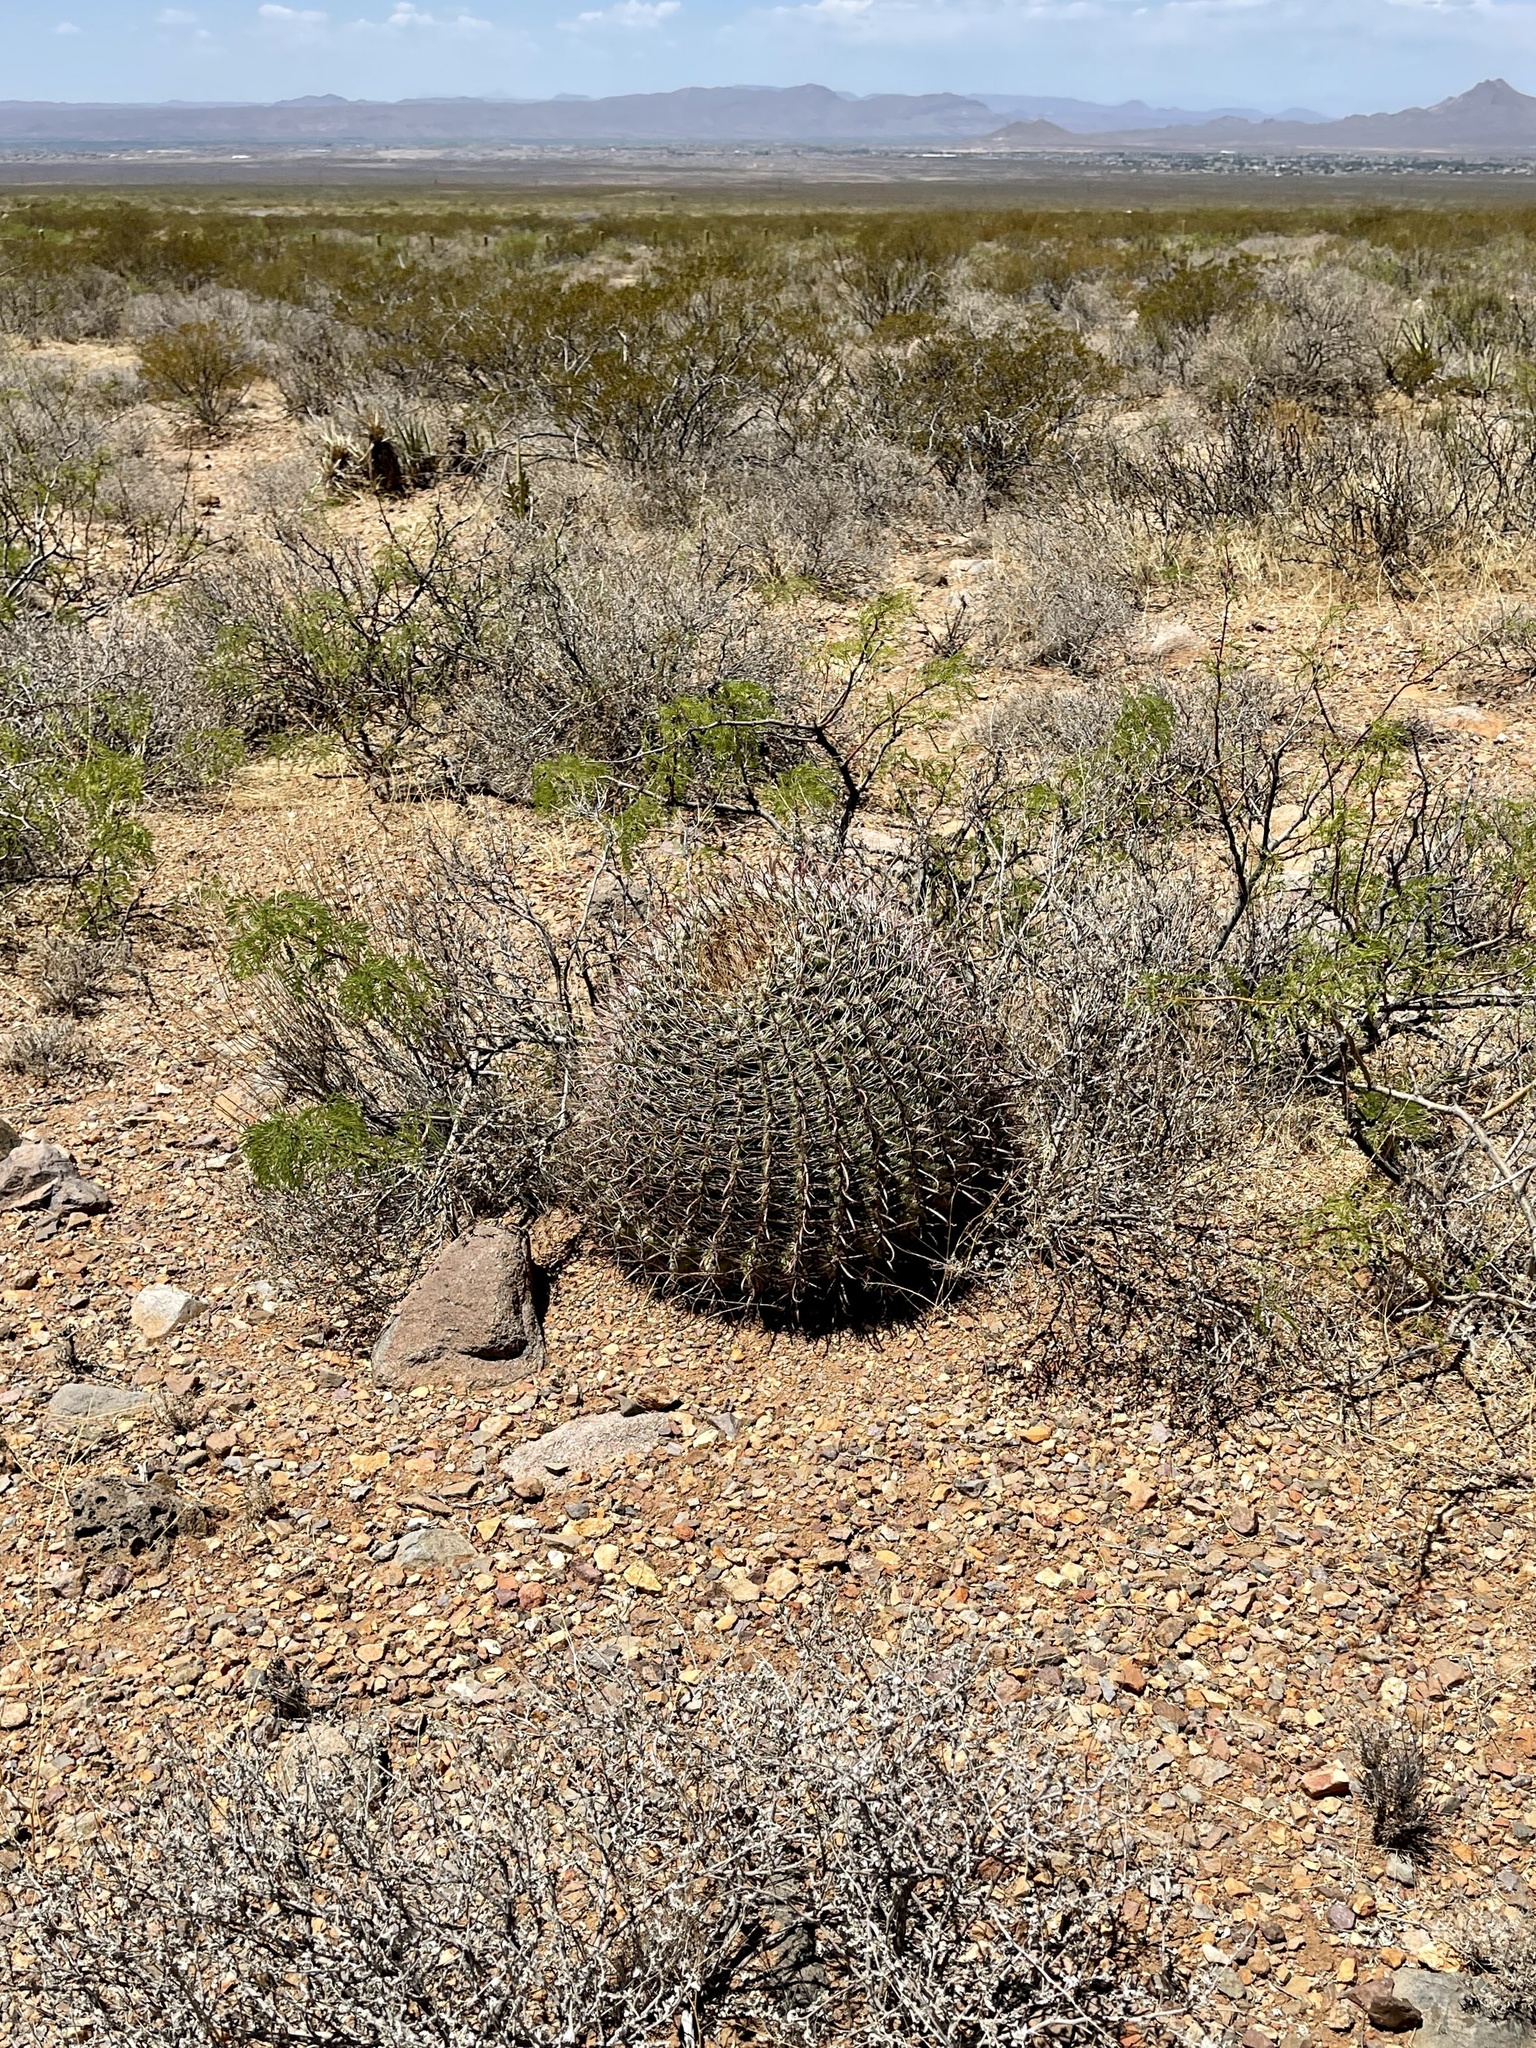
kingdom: Plantae
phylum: Tracheophyta
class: Magnoliopsida
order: Caryophyllales
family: Cactaceae
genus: Ferocactus
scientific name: Ferocactus wislizeni
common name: Candy barrel cactus
